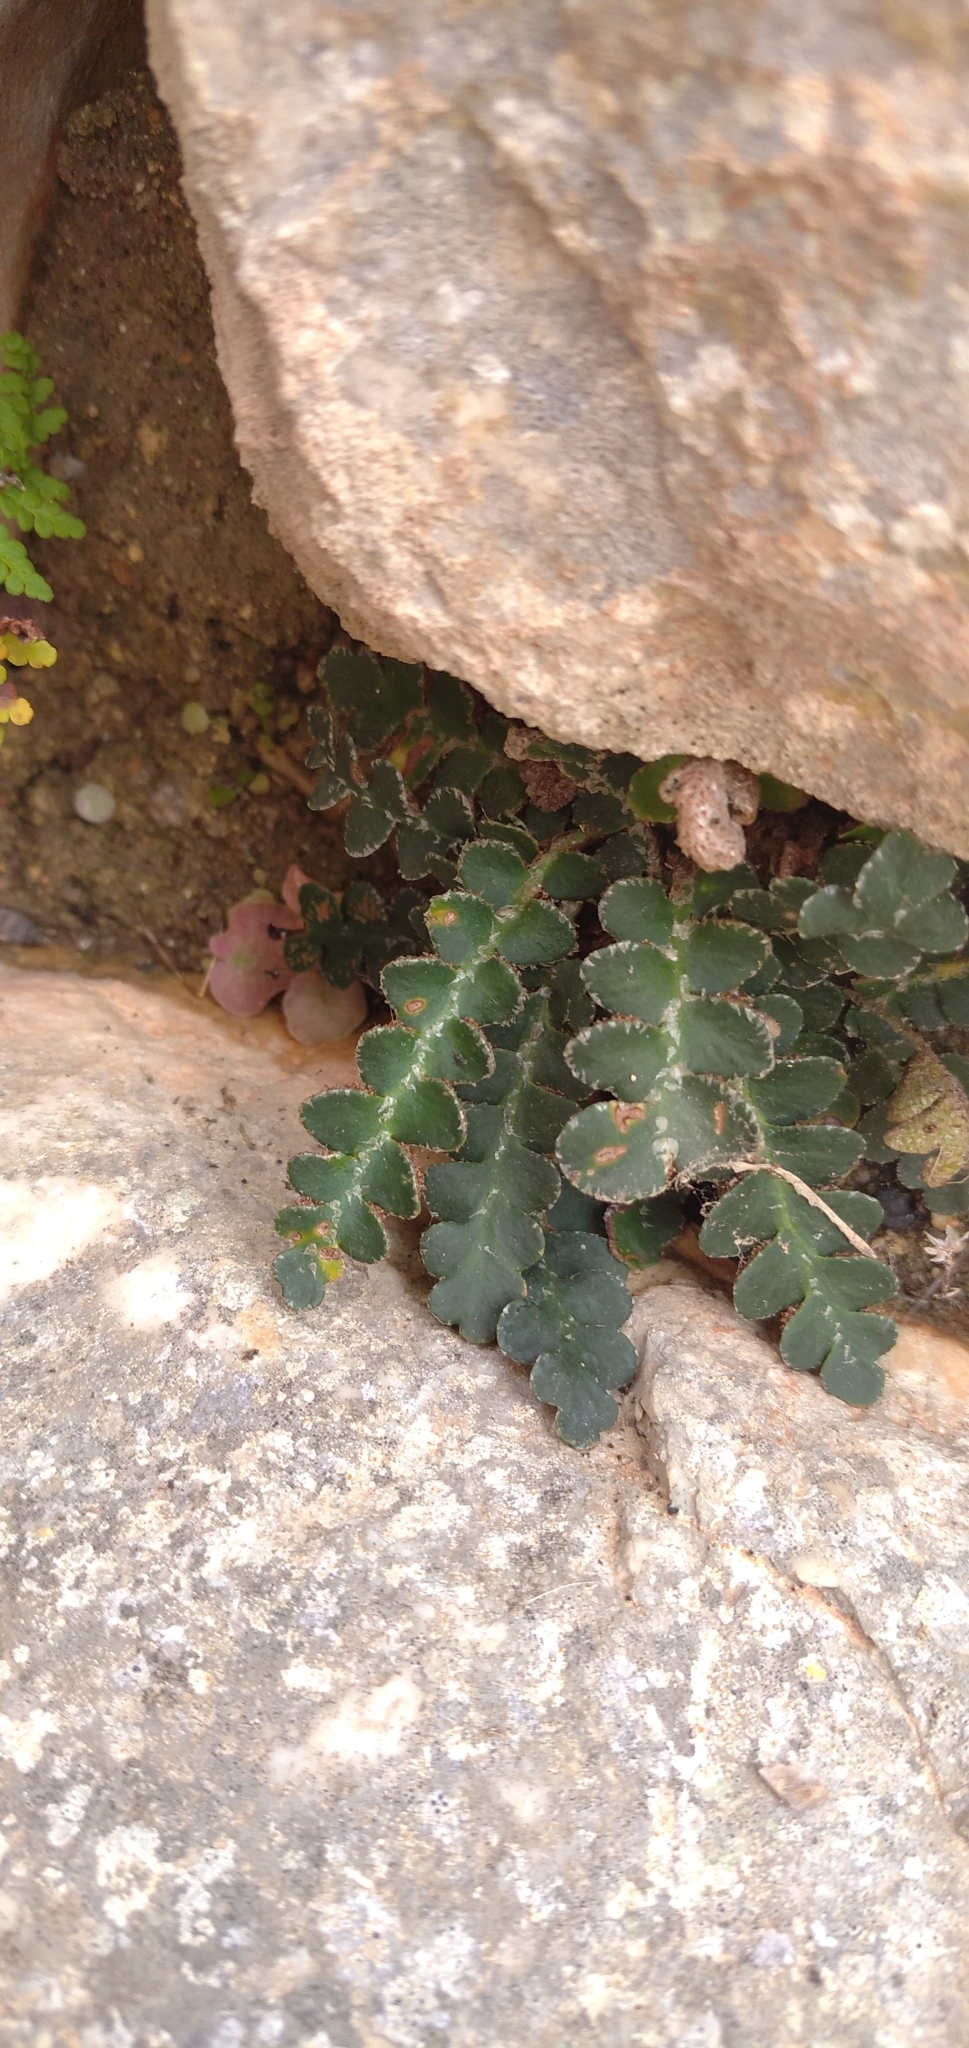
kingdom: Plantae
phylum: Tracheophyta
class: Polypodiopsida
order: Polypodiales
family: Aspleniaceae
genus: Asplenium
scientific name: Asplenium ceterach
